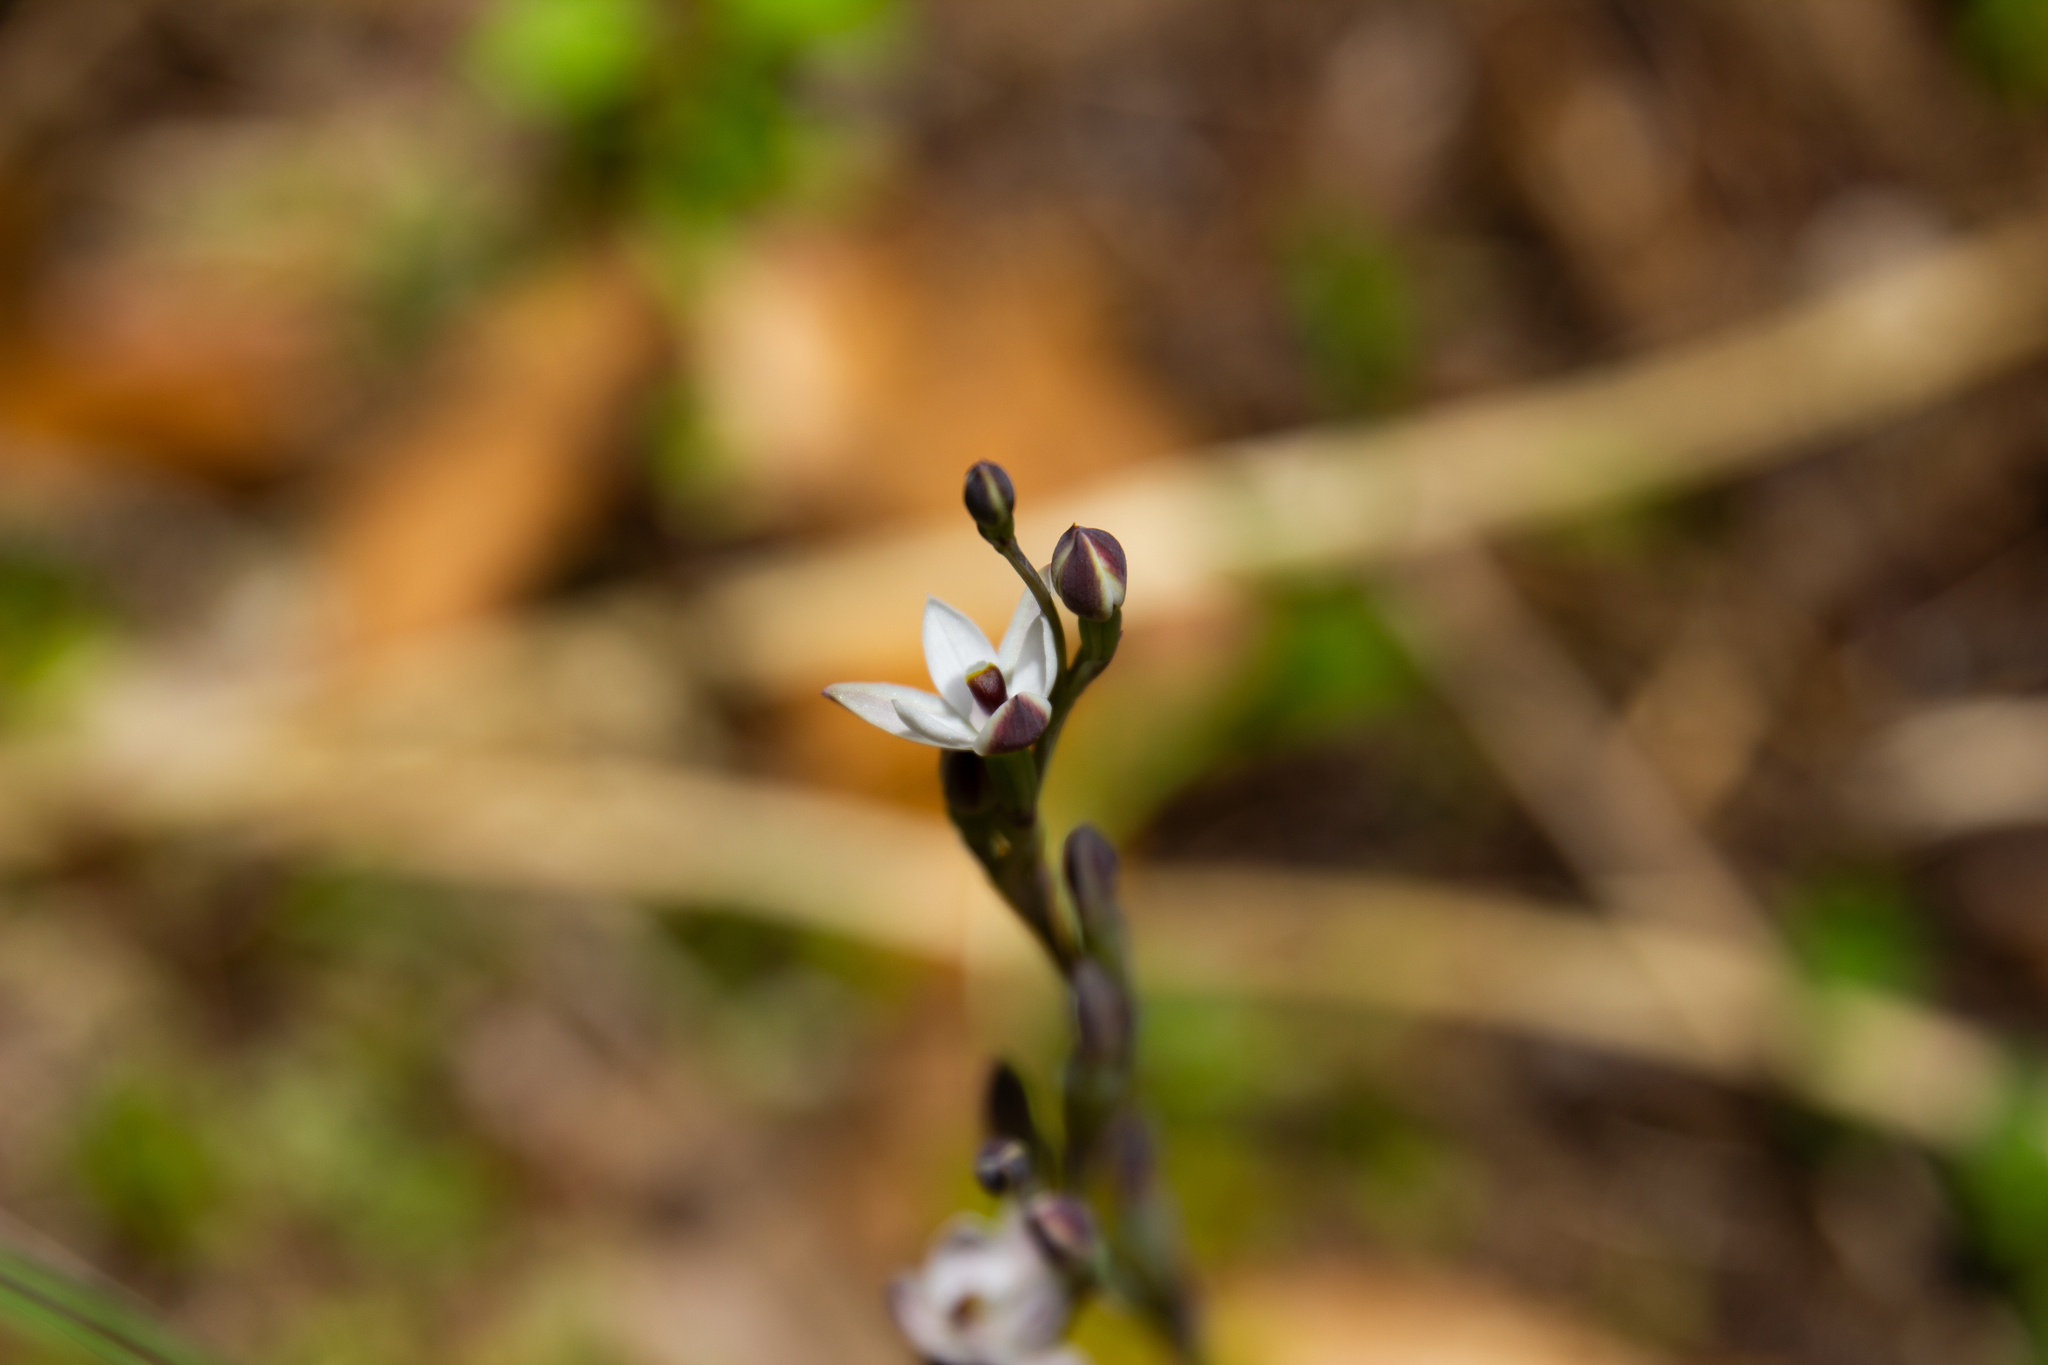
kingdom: Plantae
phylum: Tracheophyta
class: Liliopsida
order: Asparagales
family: Orchidaceae
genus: Thelymitra
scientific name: Thelymitra longifolia
